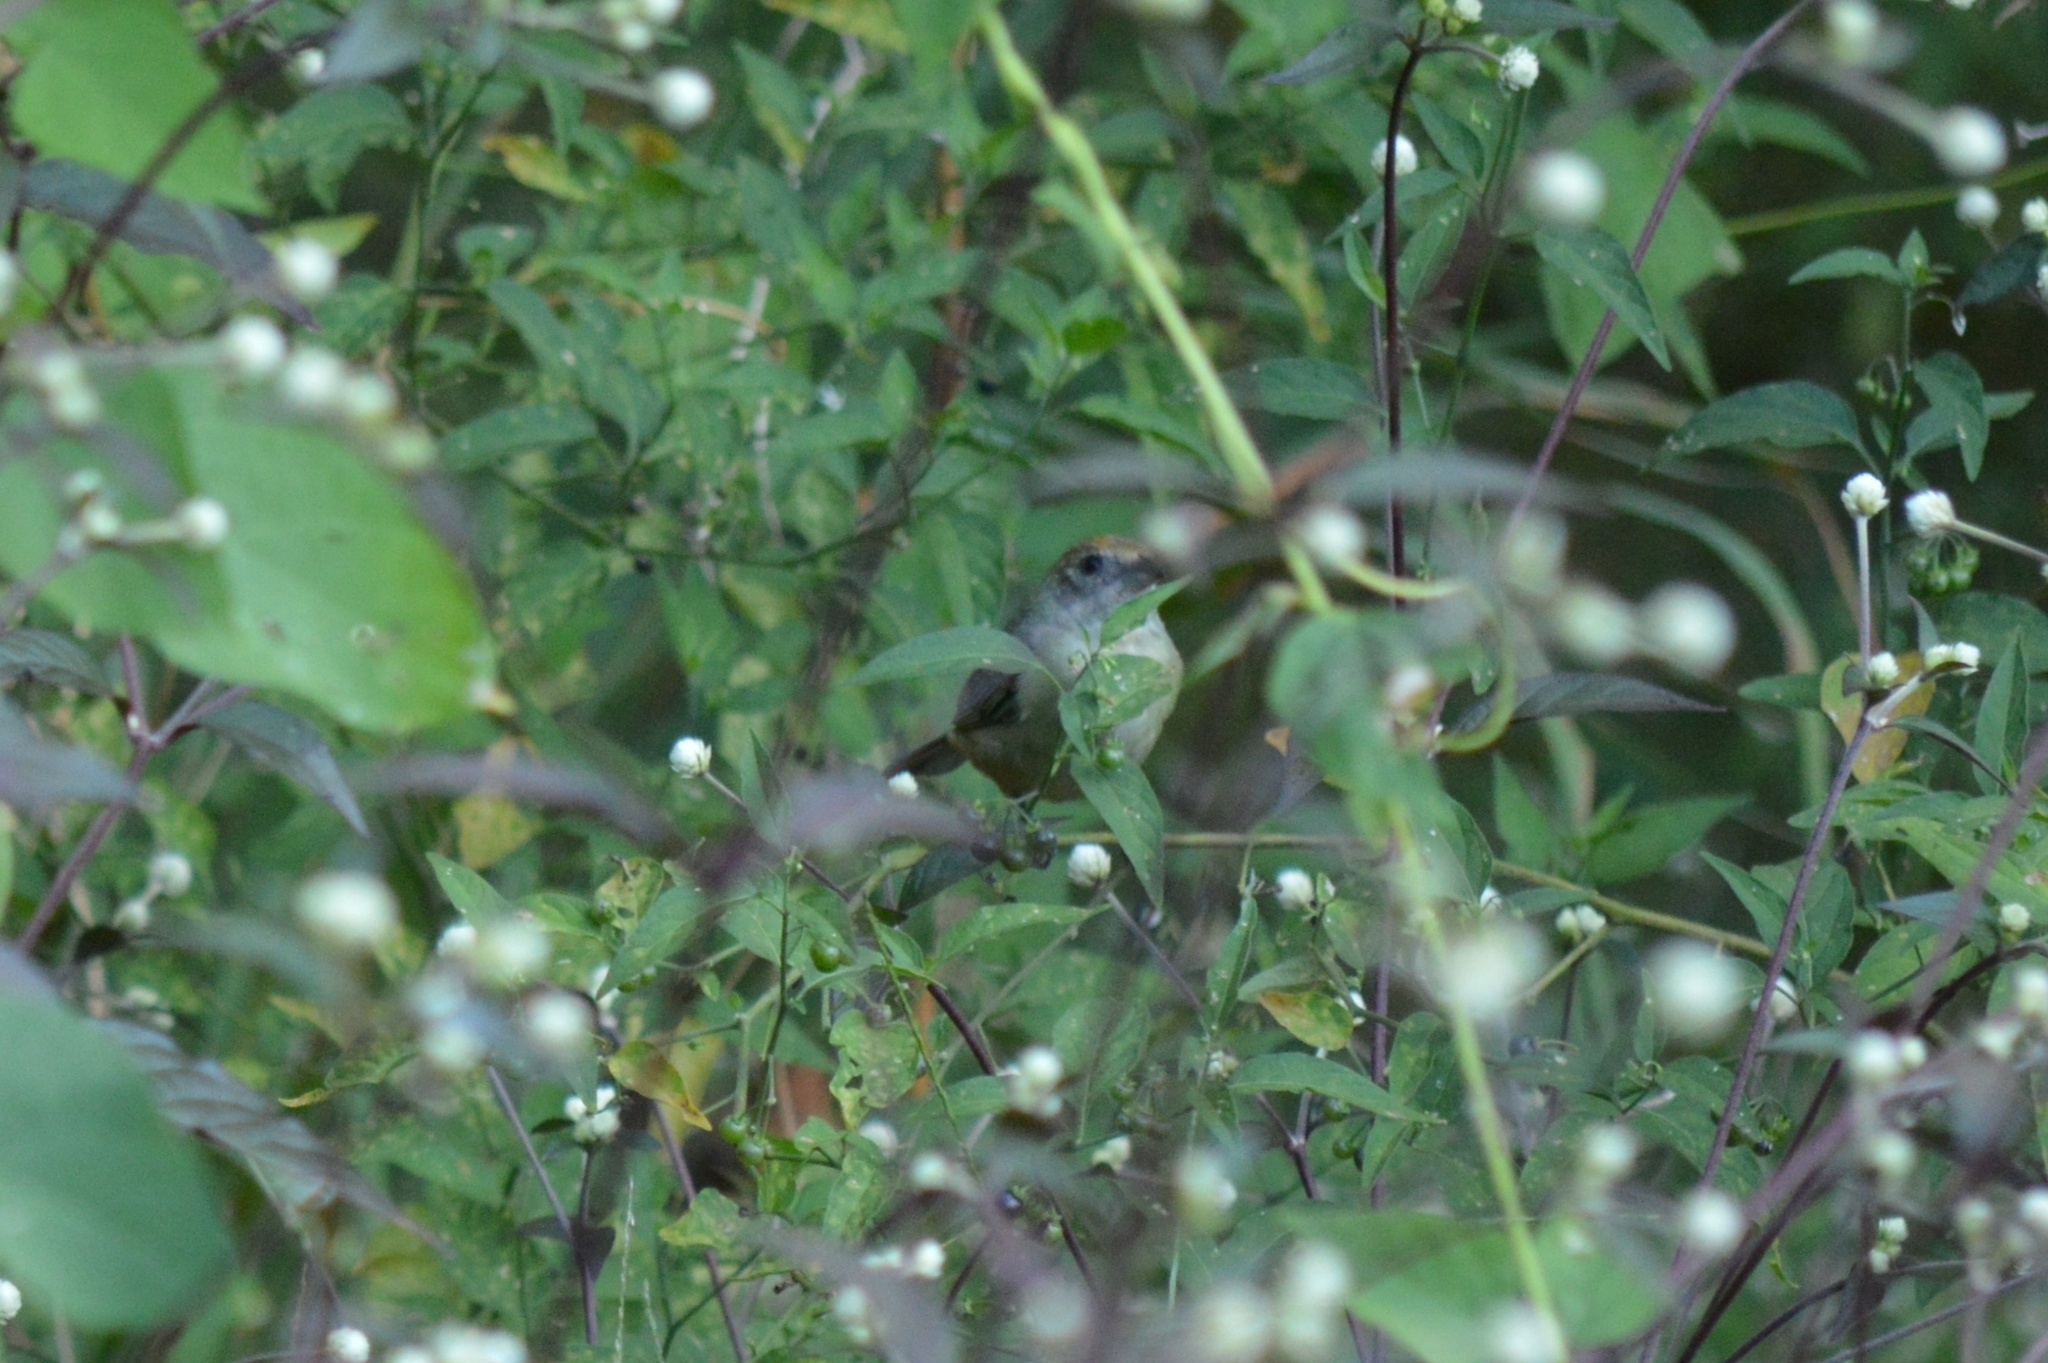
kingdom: Animalia
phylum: Chordata
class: Aves
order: Passeriformes
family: Thraupidae
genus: Stilpnia
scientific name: Stilpnia cayana
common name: Burnished-buff tanager
